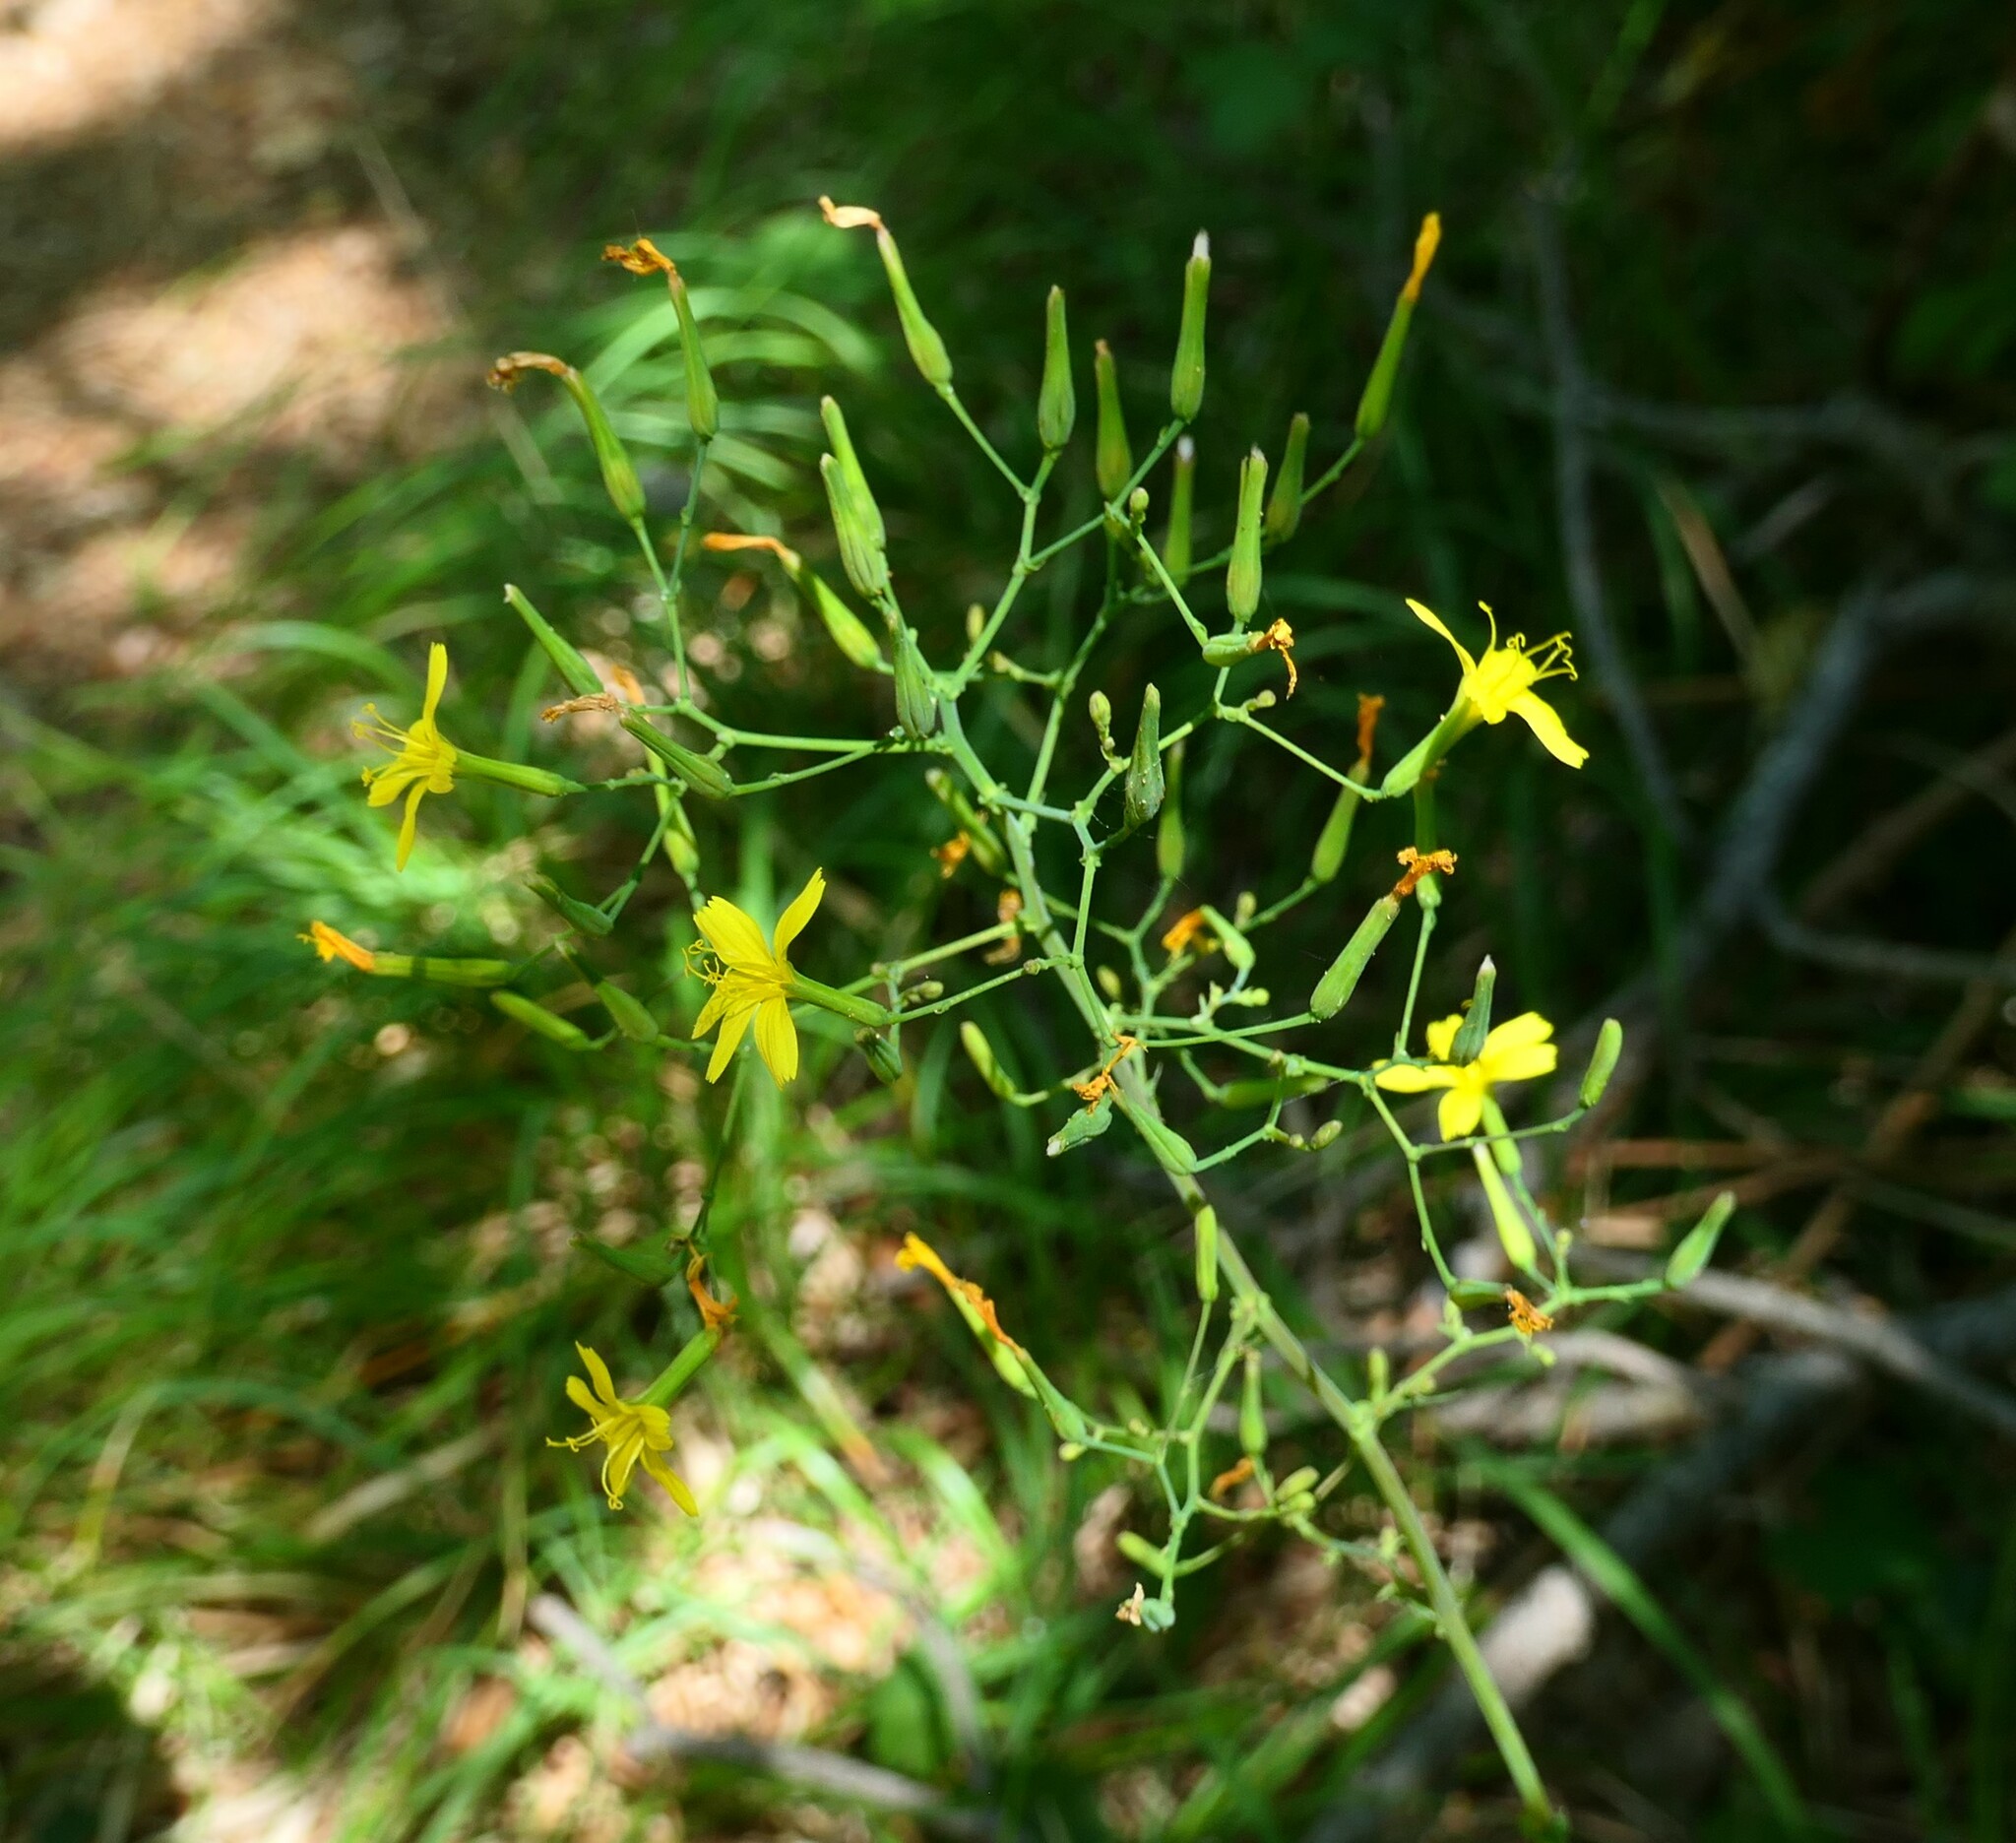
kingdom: Plantae
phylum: Tracheophyta
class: Magnoliopsida
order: Asterales
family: Asteraceae
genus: Mycelis
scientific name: Mycelis muralis
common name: Wall lettuce
